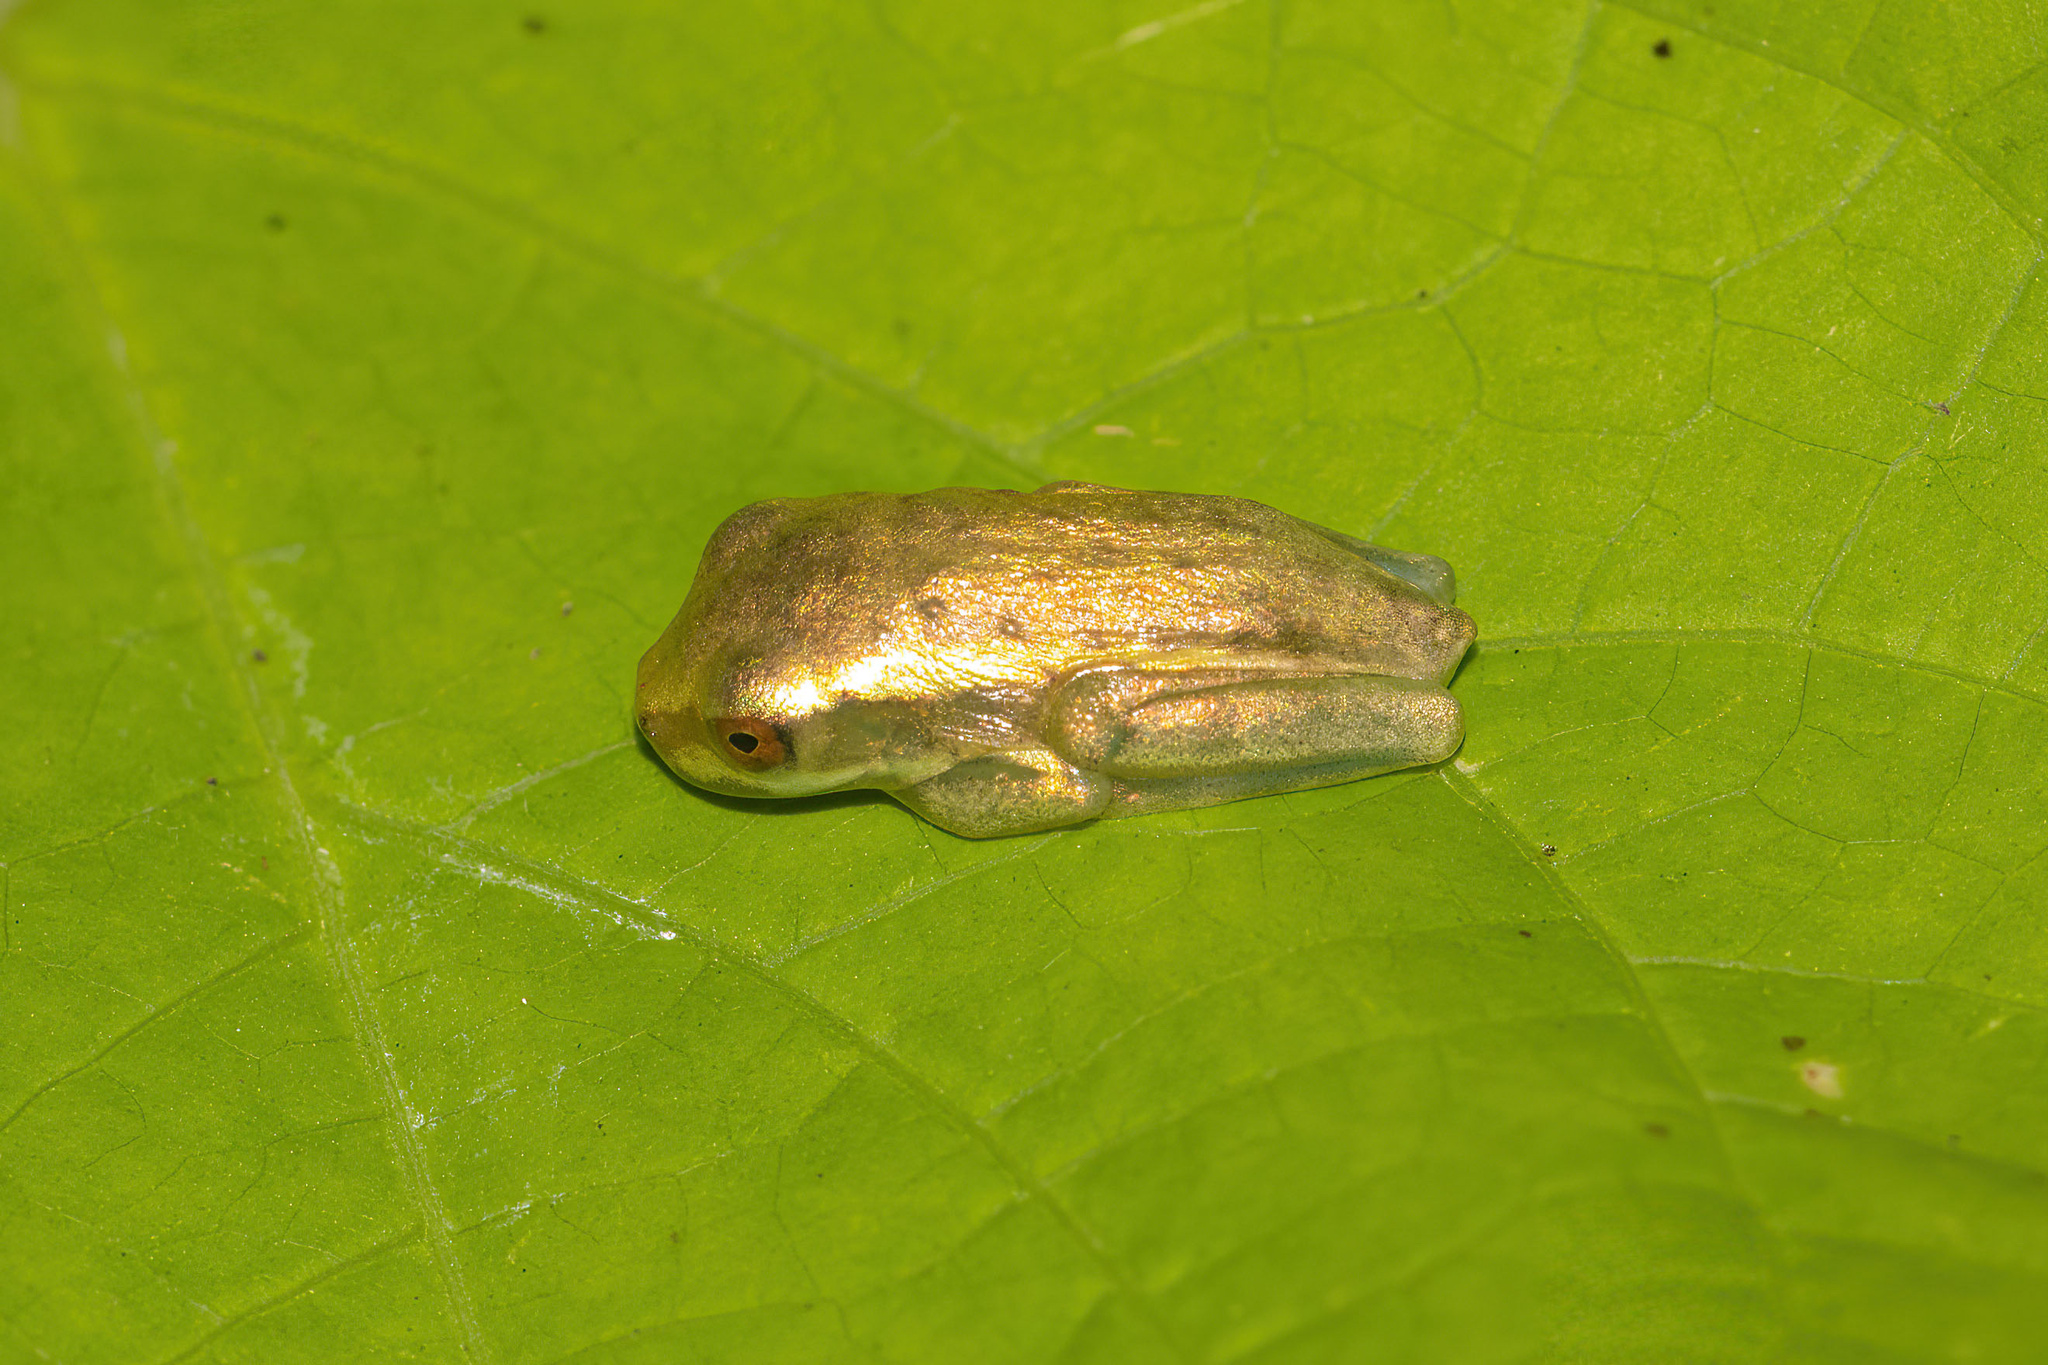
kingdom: Animalia
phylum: Chordata
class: Amphibia
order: Anura
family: Hylidae
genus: Osteopilus
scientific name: Osteopilus septentrionalis
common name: Cuban treefrog
